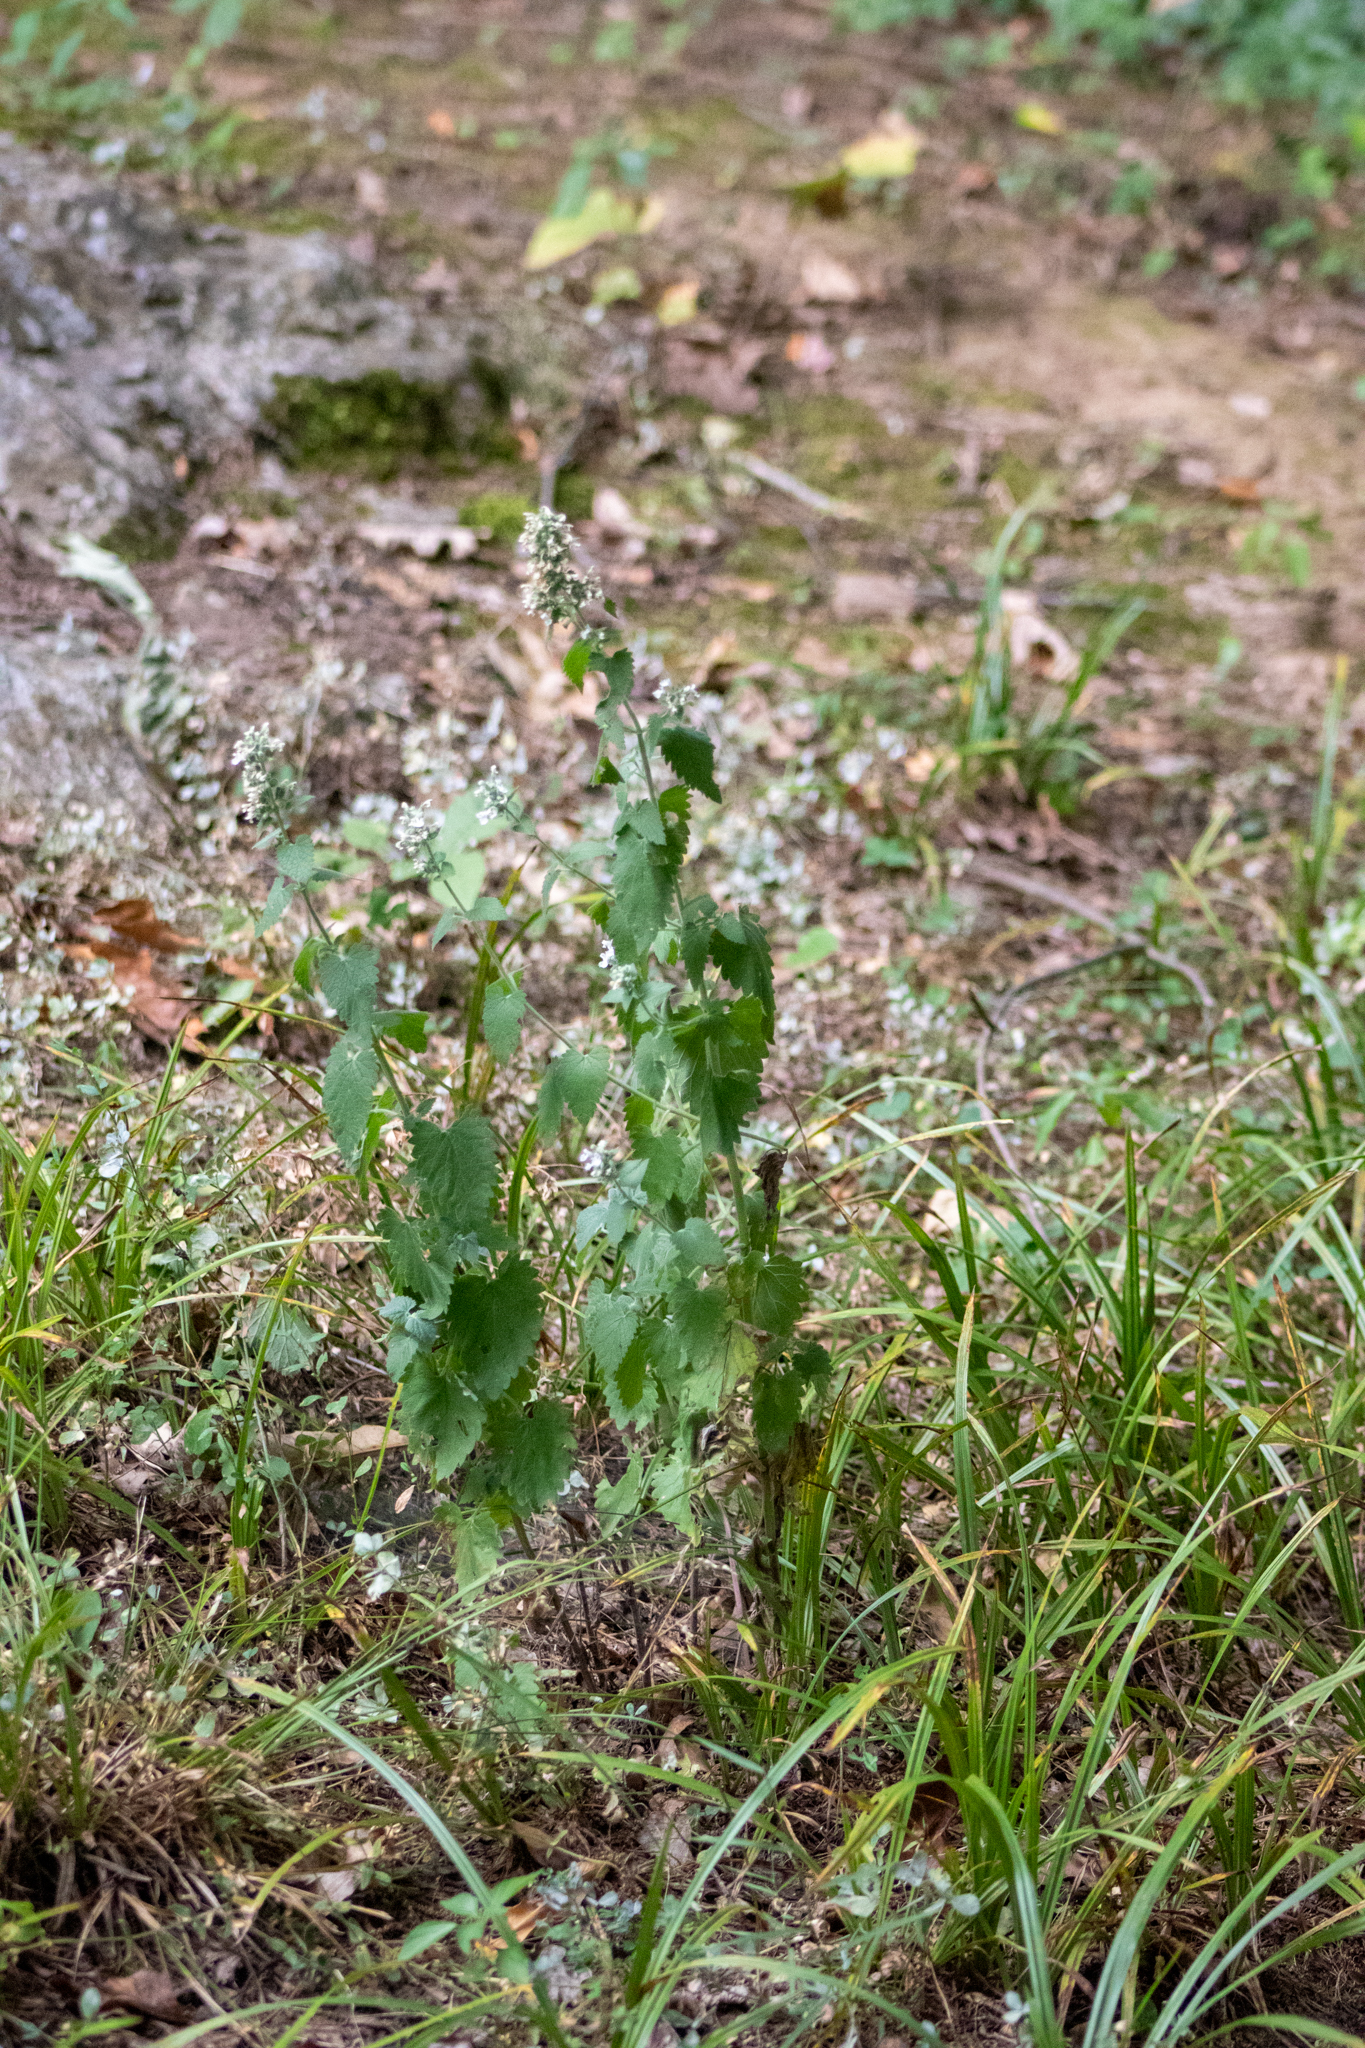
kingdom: Plantae
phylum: Tracheophyta
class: Magnoliopsida
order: Lamiales
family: Lamiaceae
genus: Nepeta
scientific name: Nepeta cataria
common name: Catnip
